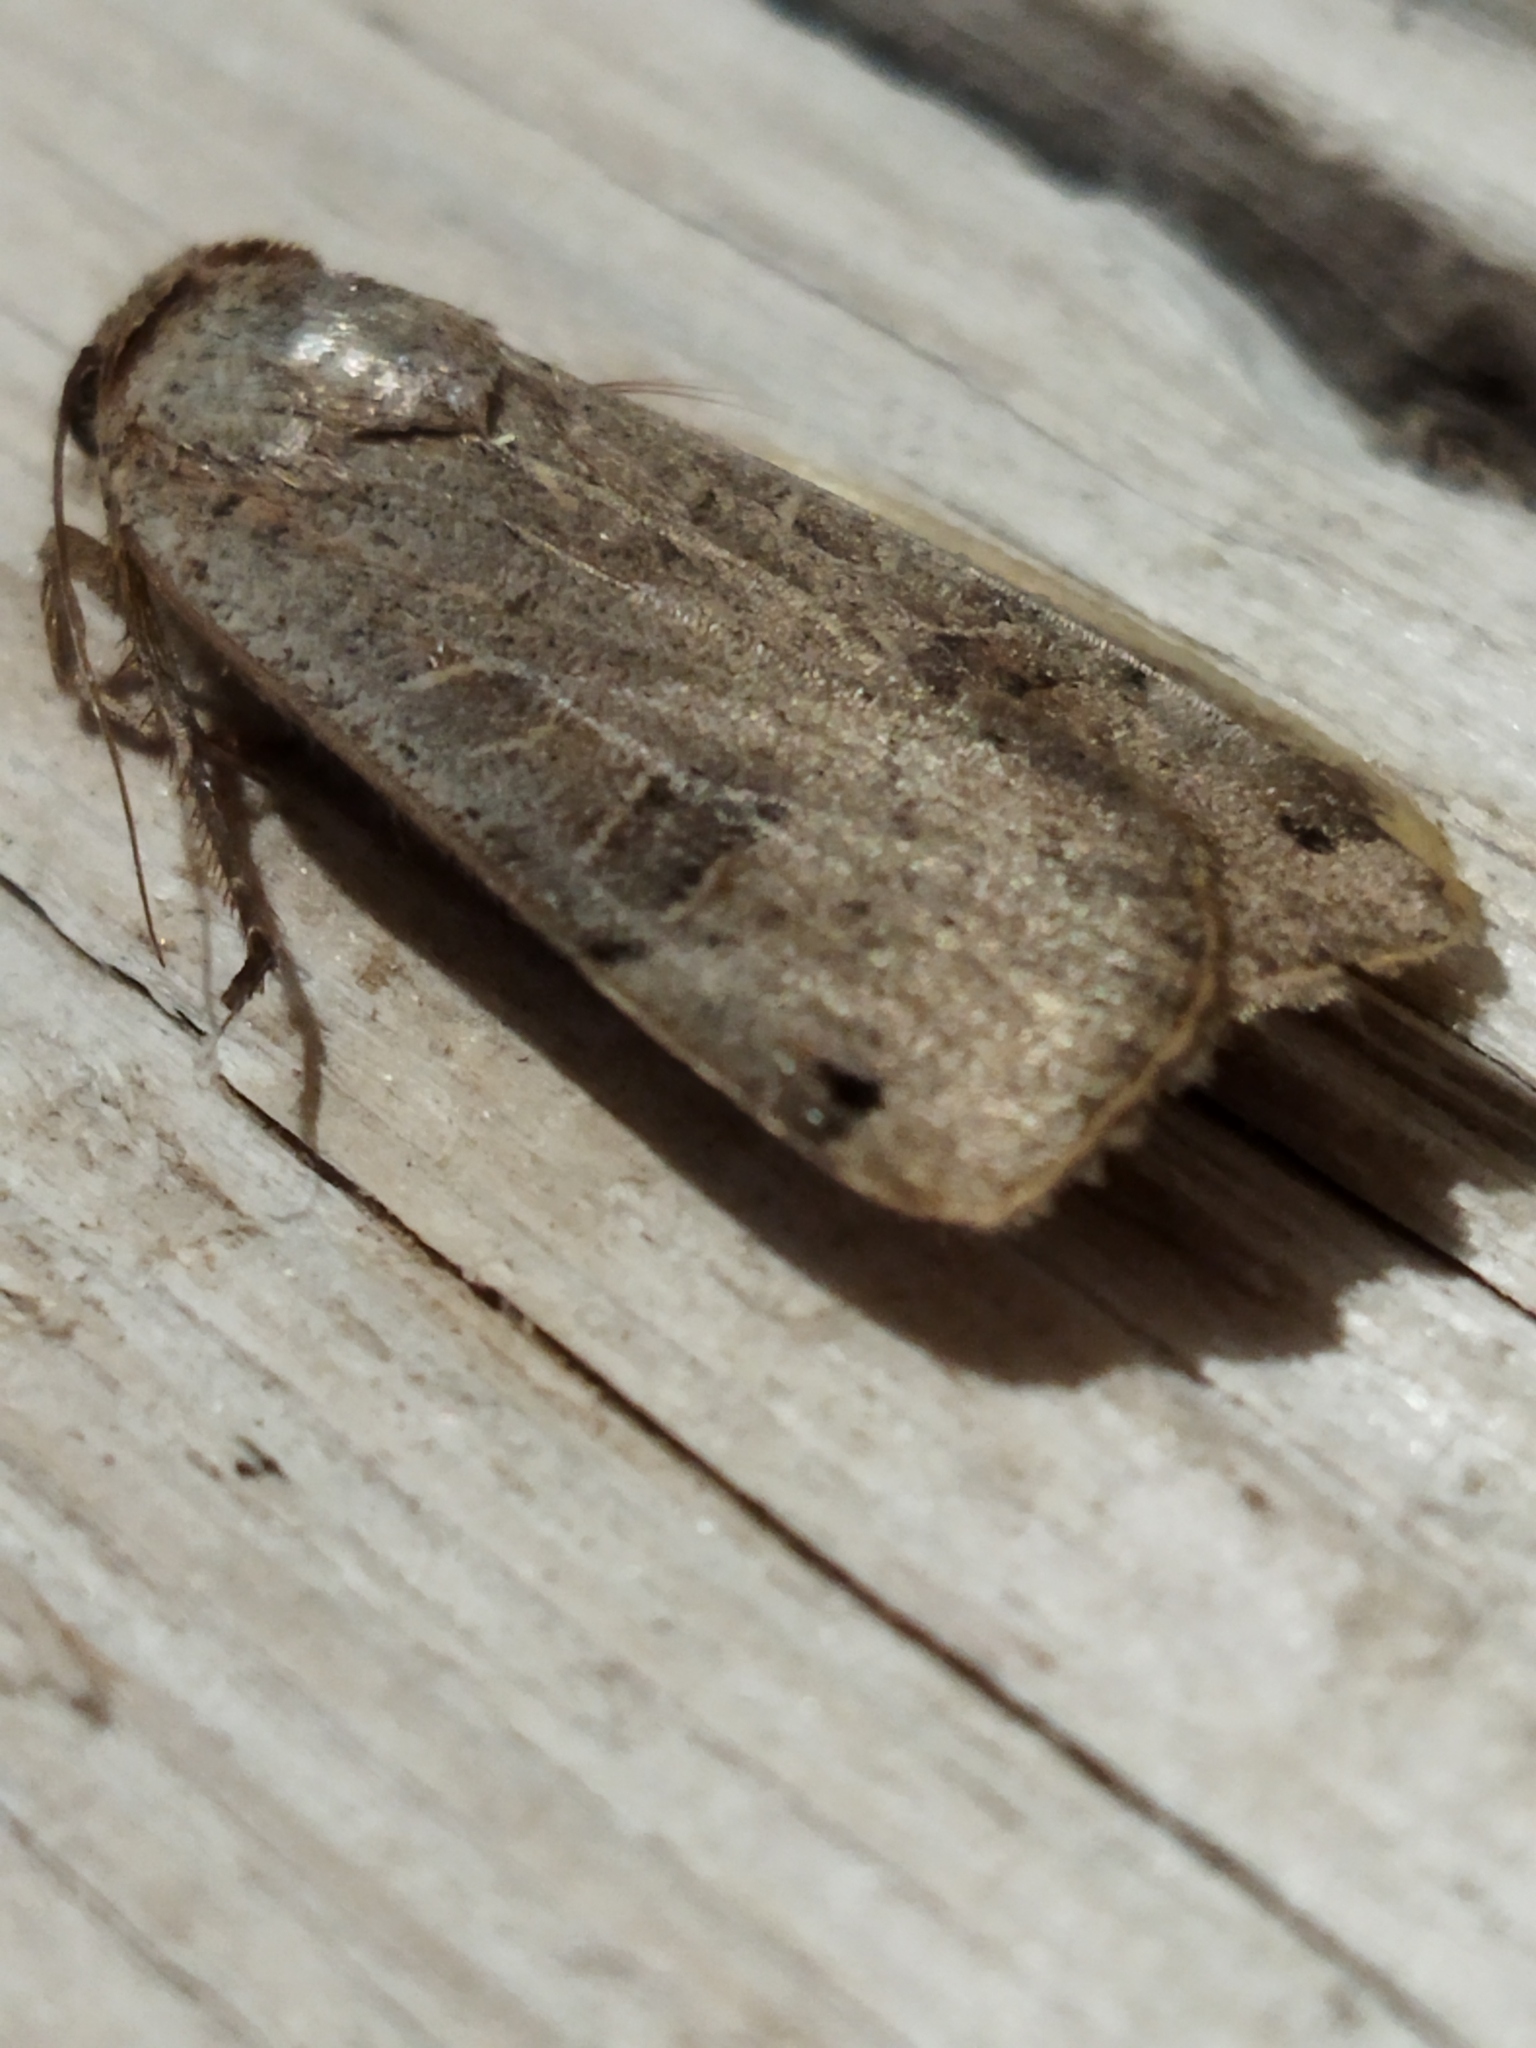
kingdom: Animalia
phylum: Arthropoda
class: Insecta
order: Lepidoptera
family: Noctuidae
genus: Noctua
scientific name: Noctua orbona
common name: Lunar yellow underwing
